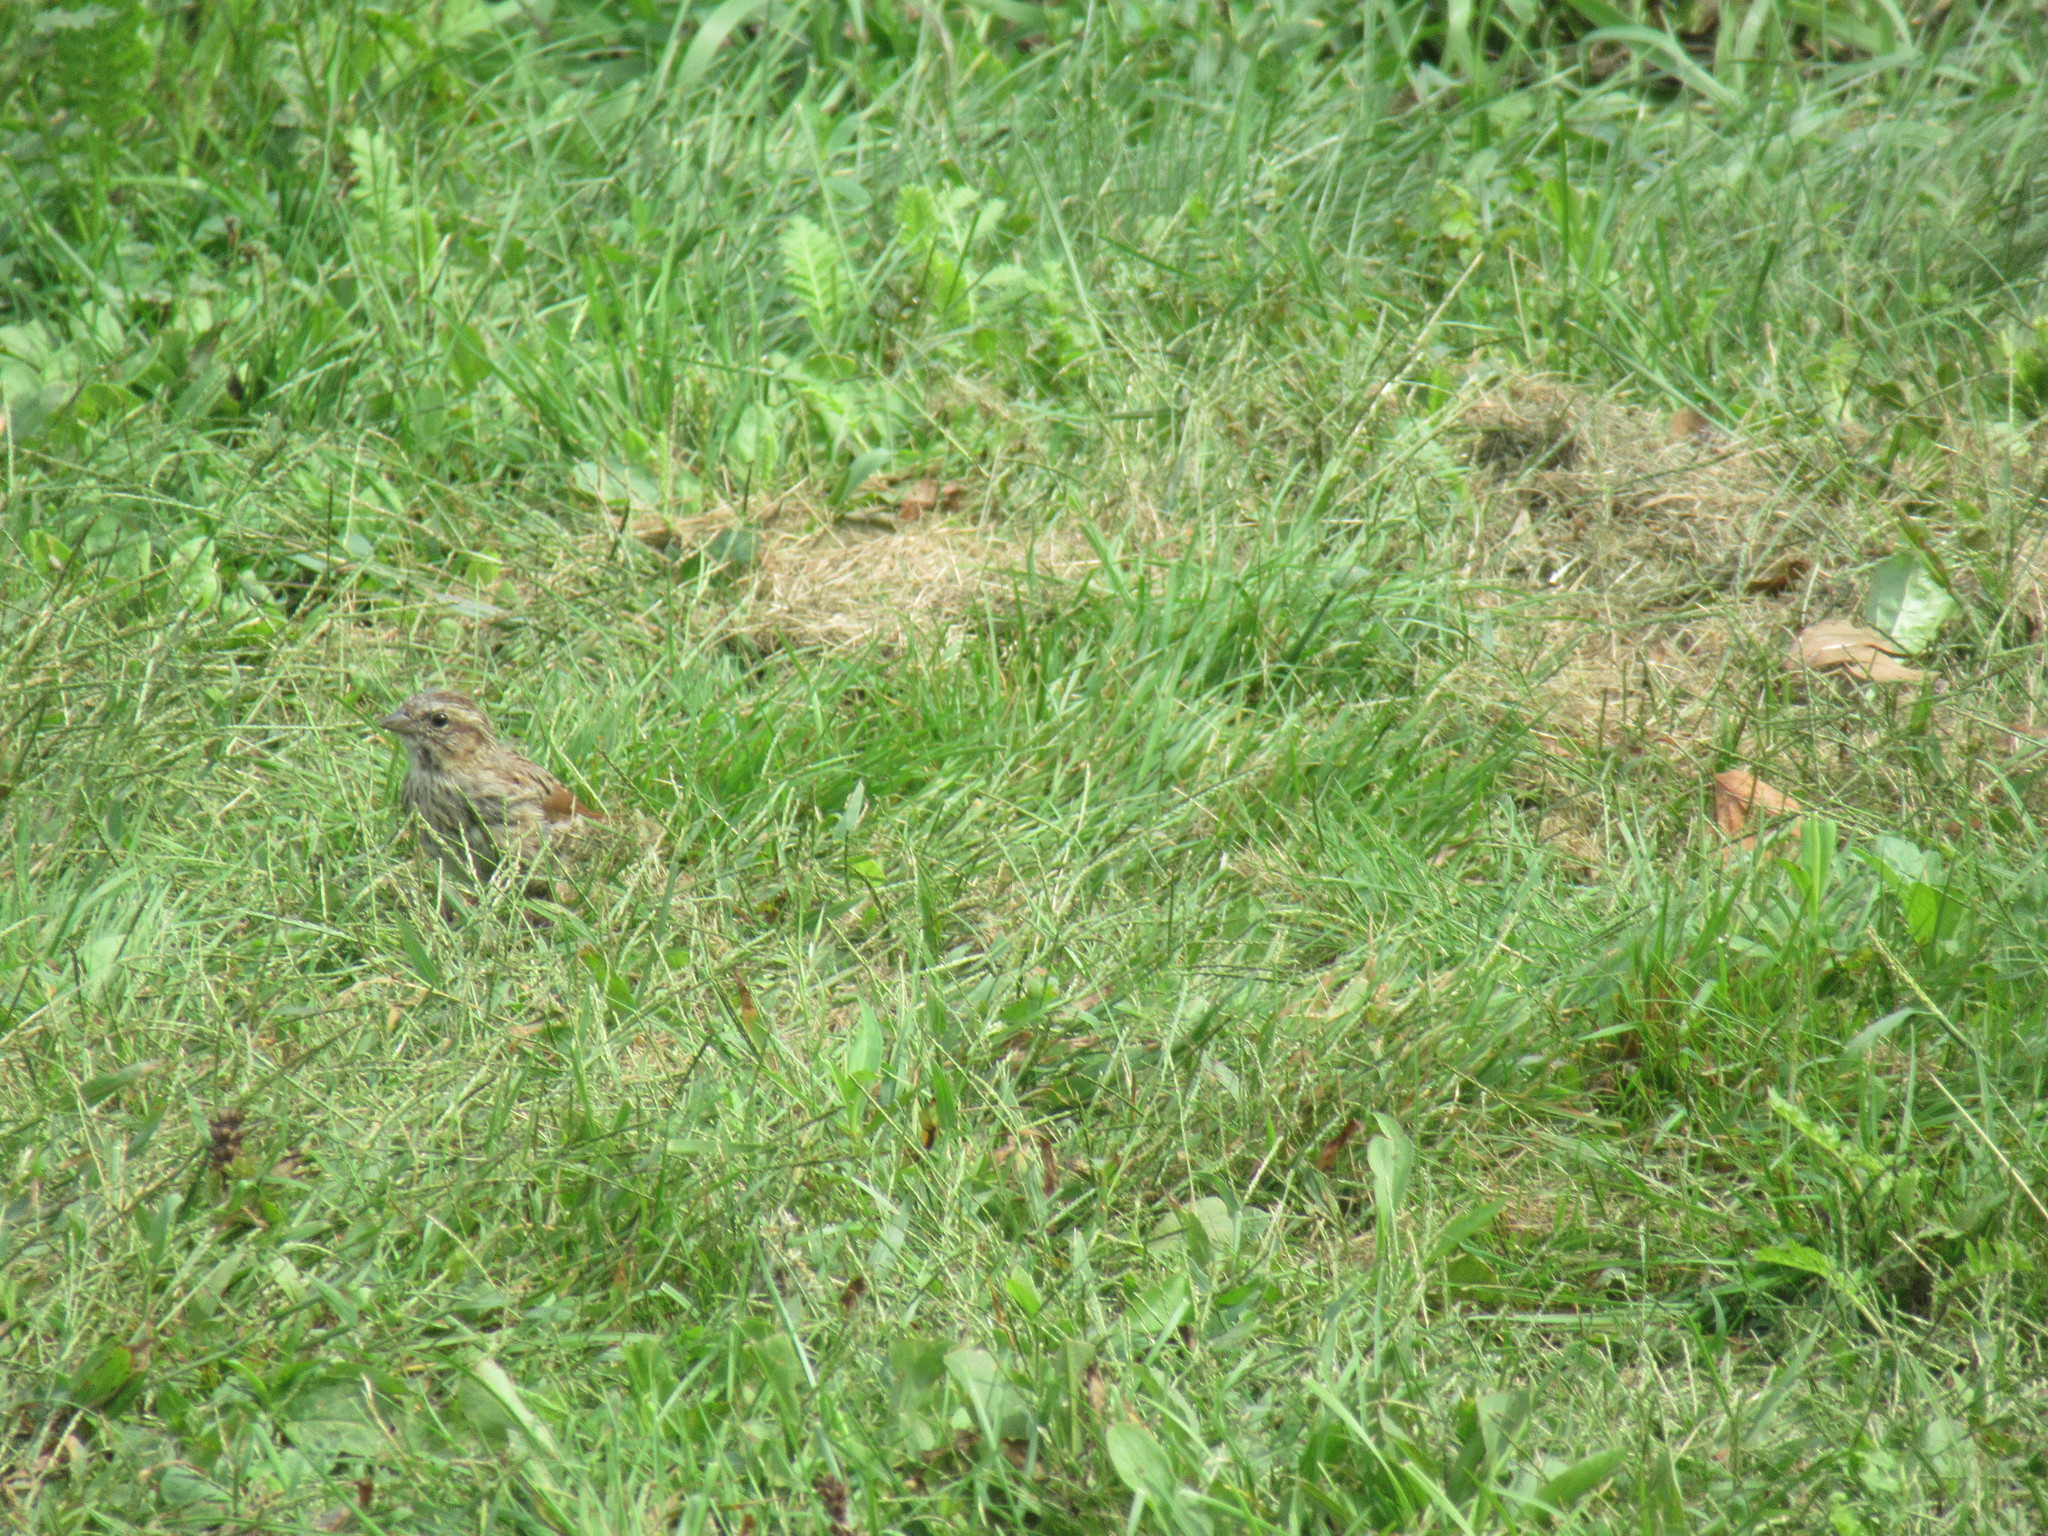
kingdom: Animalia
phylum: Chordata
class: Aves
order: Passeriformes
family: Passerellidae
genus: Melospiza
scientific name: Melospiza melodia
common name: Song sparrow
